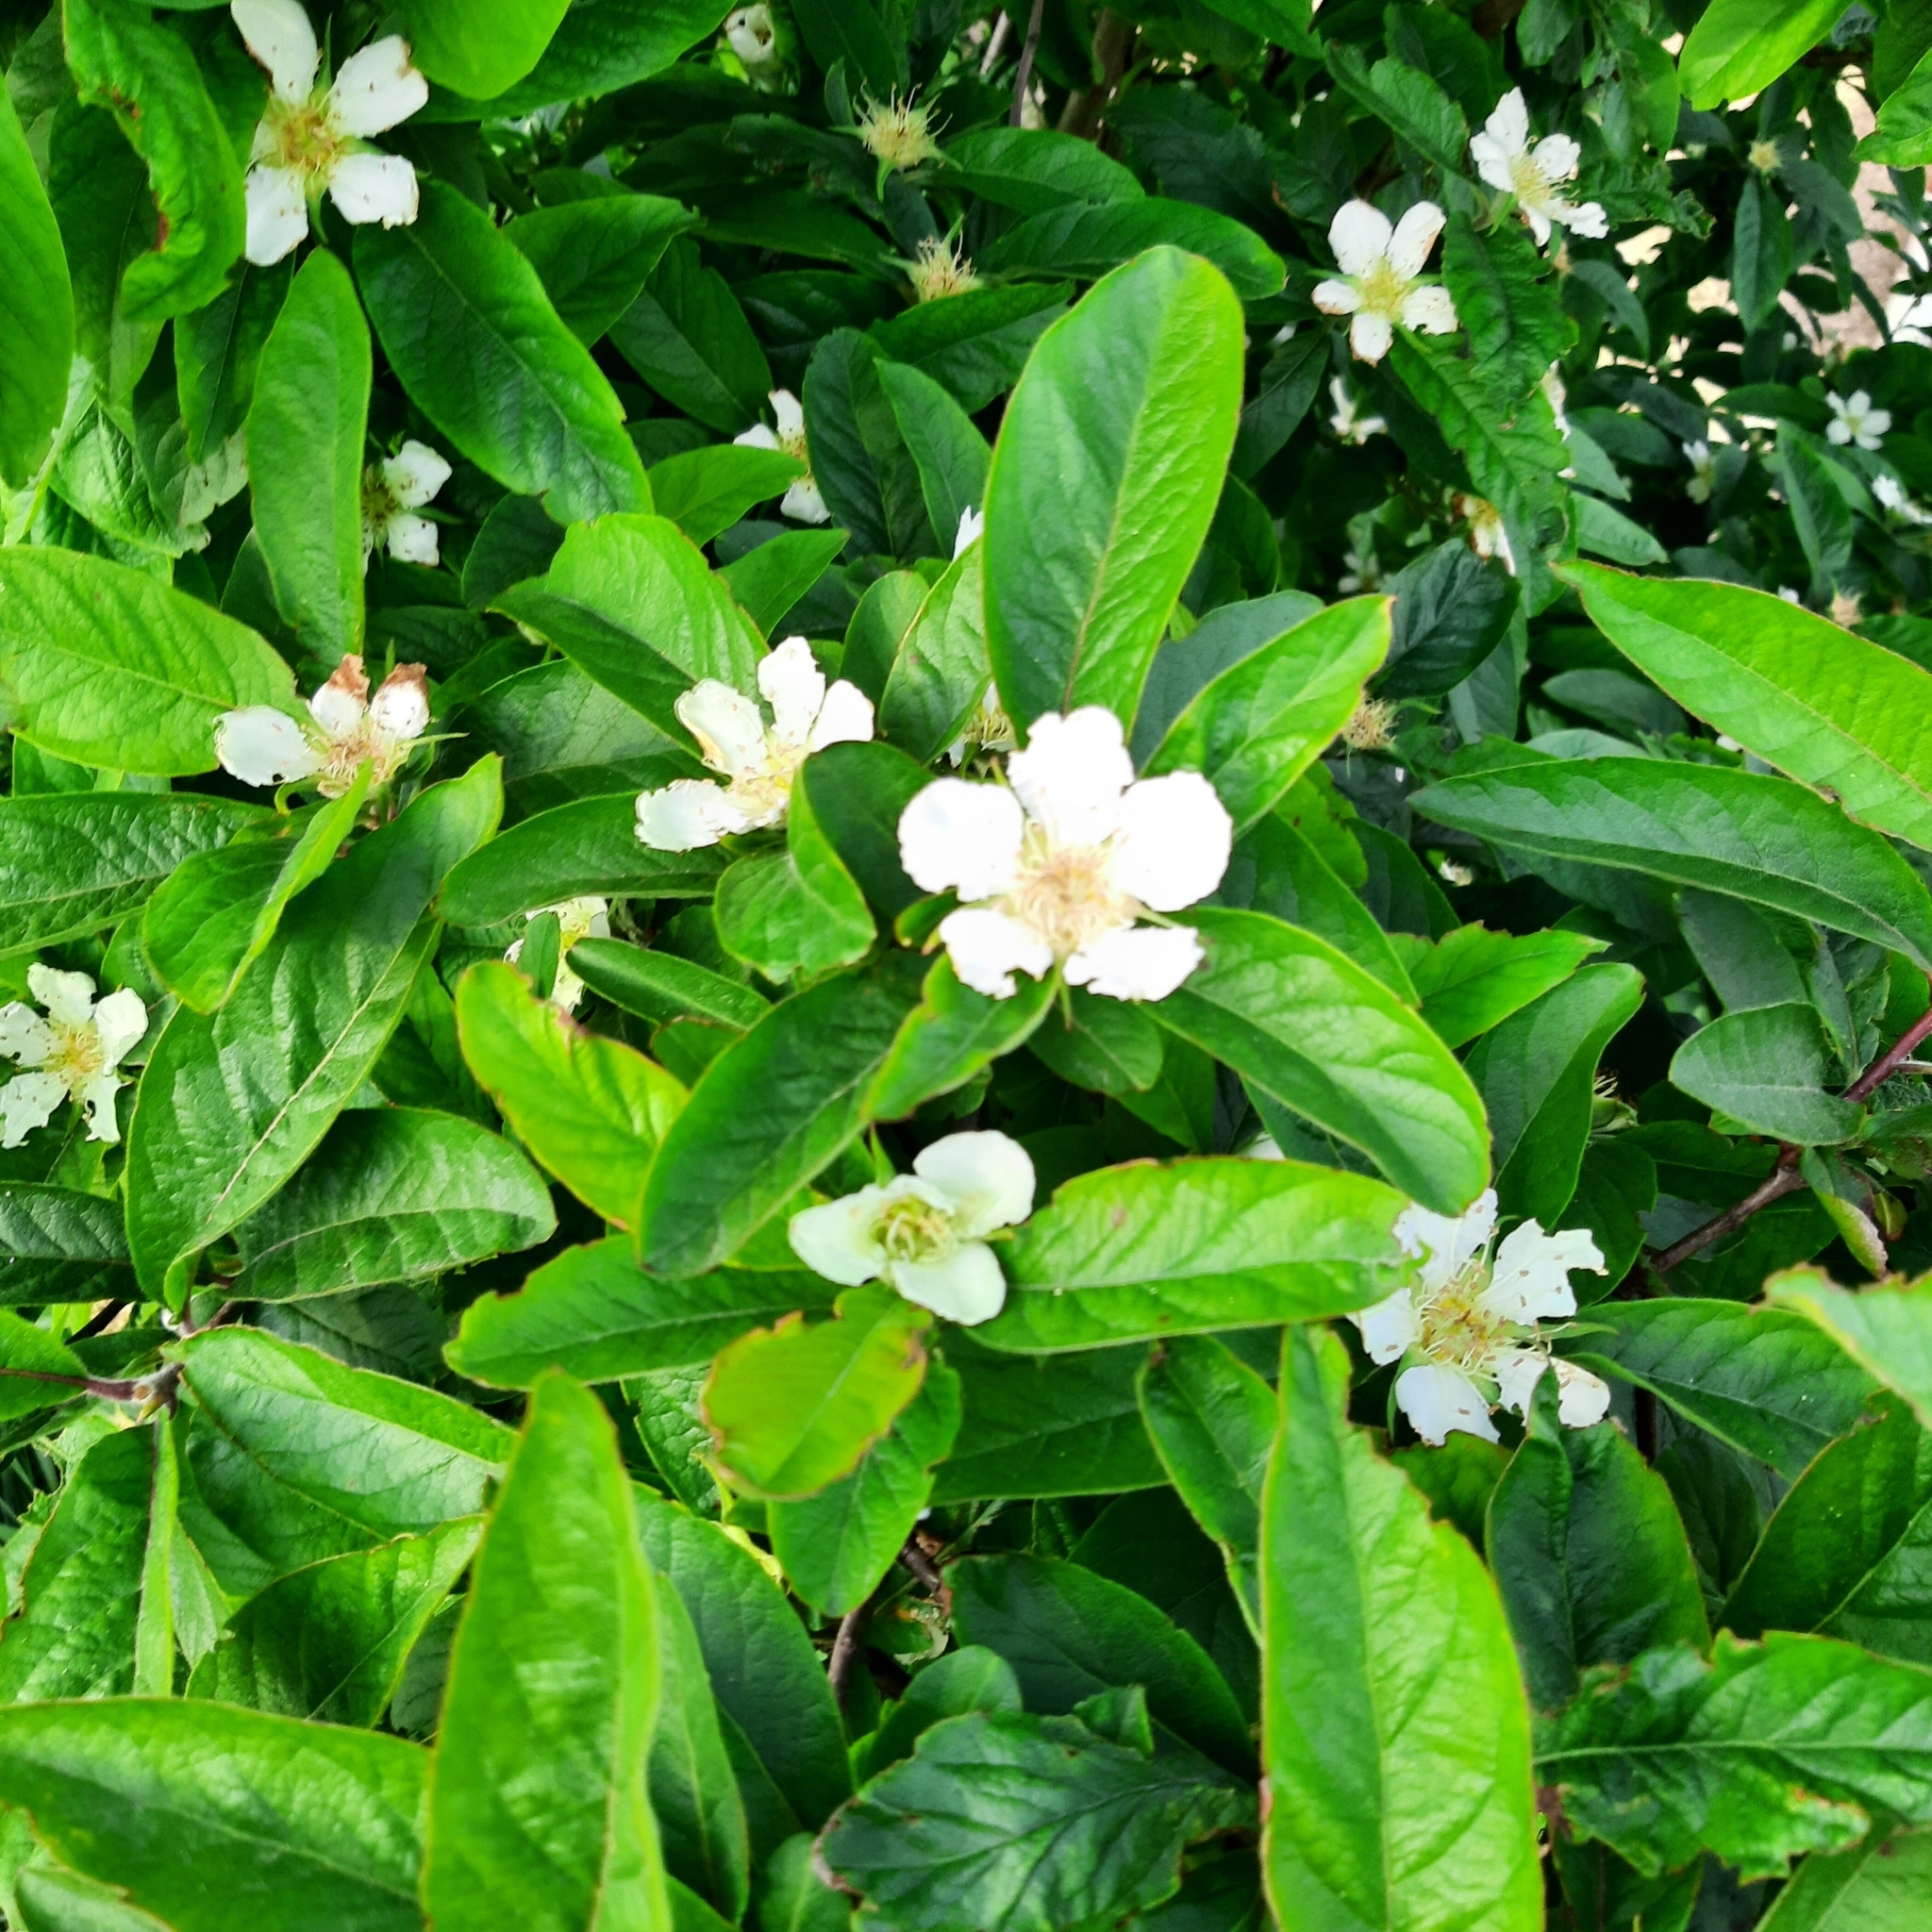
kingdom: Plantae
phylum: Tracheophyta
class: Magnoliopsida
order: Rosales
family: Rosaceae
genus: Mespilus
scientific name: Mespilus germanica
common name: Medlar
